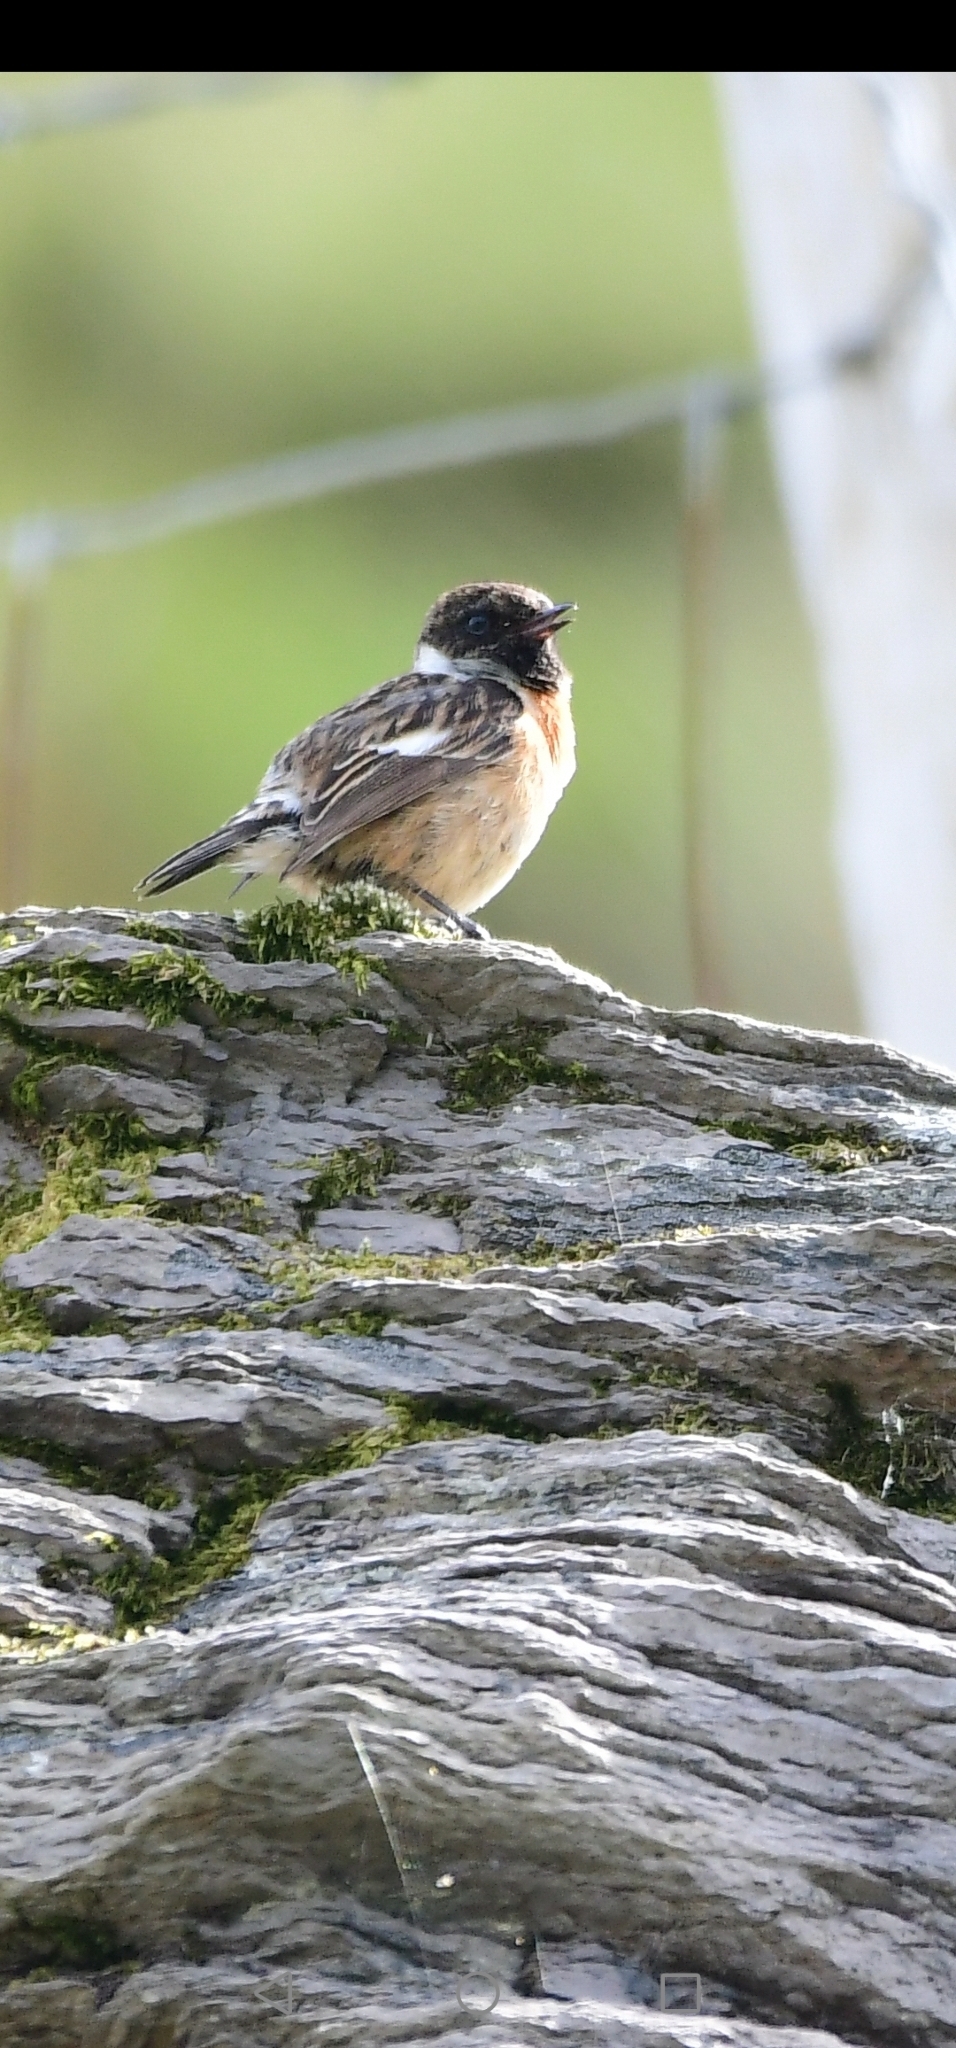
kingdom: Animalia
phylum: Chordata
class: Aves
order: Passeriformes
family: Muscicapidae
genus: Saxicola
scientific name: Saxicola rubicola
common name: European stonechat
